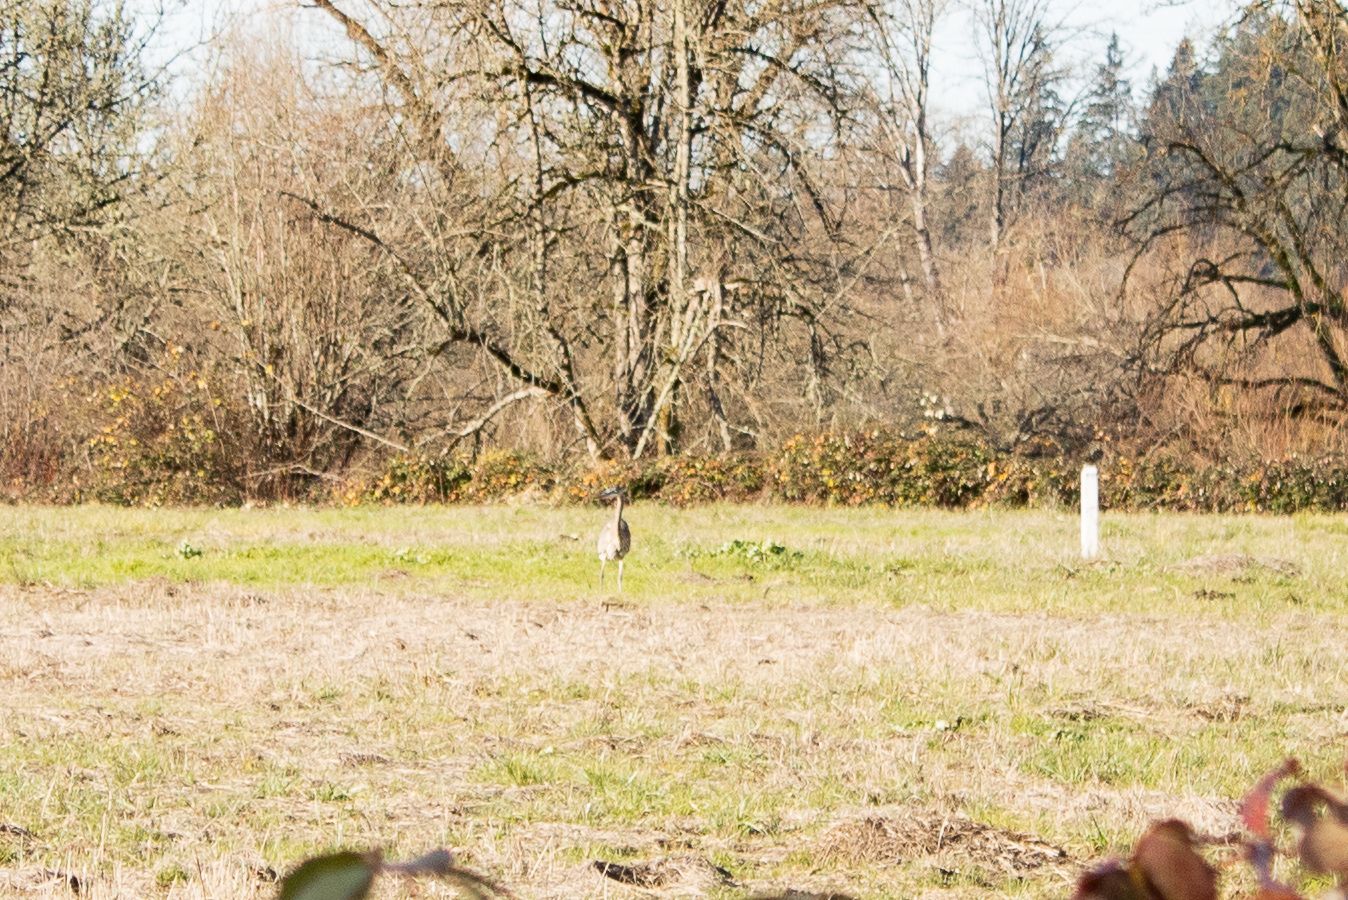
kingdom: Animalia
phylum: Chordata
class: Aves
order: Pelecaniformes
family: Ardeidae
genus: Ardea
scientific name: Ardea herodias
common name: Great blue heron
